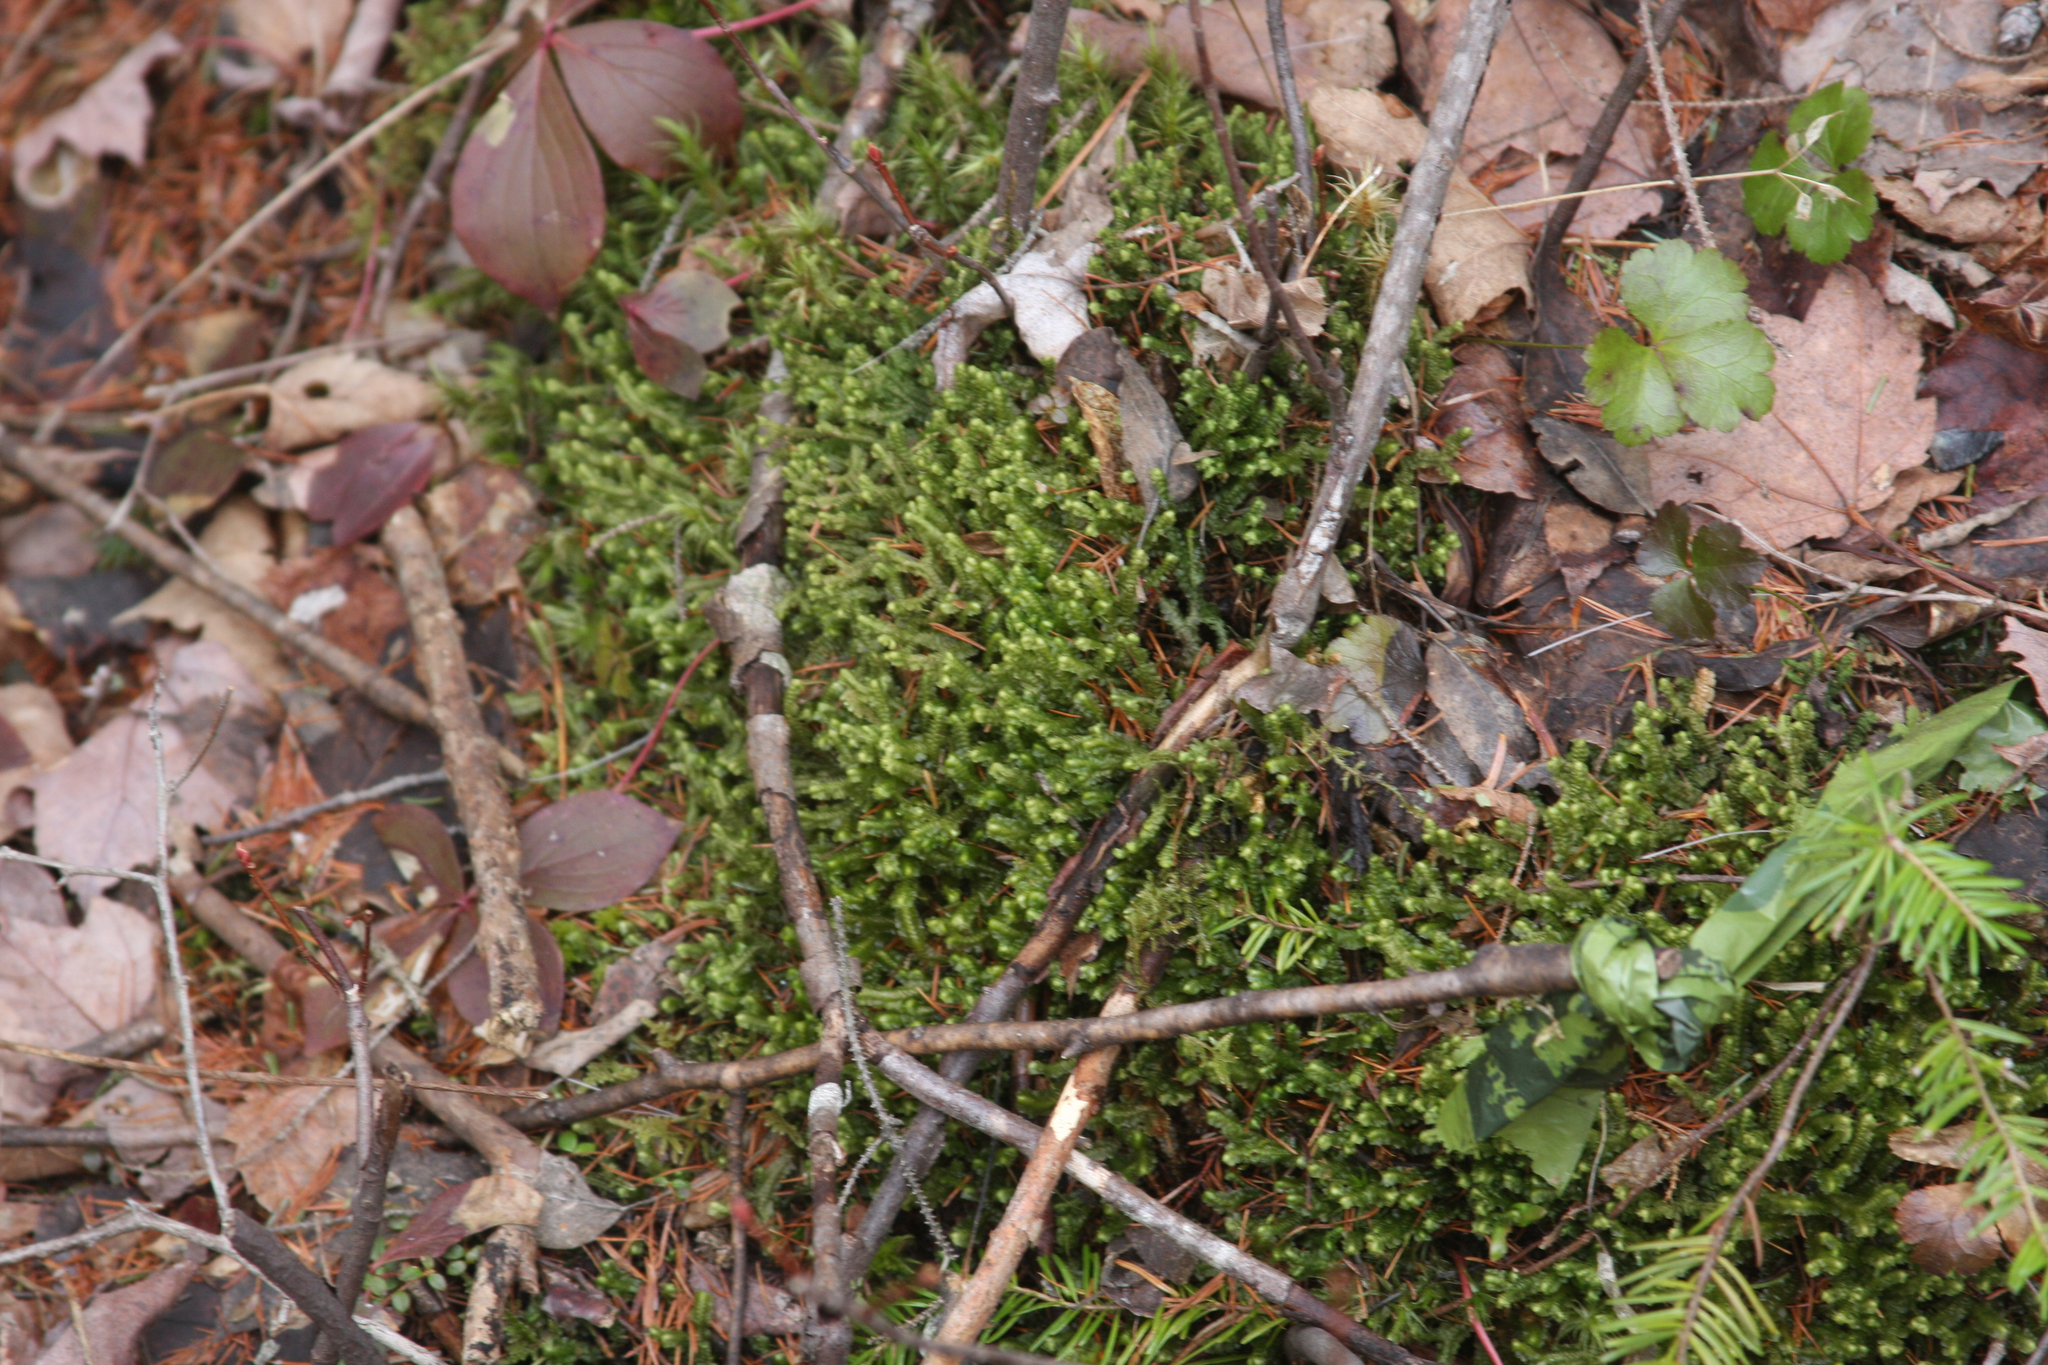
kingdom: Plantae
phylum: Tracheophyta
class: Magnoliopsida
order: Ranunculales
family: Ranunculaceae
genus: Coptis
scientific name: Coptis trifolia
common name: Canker-root
